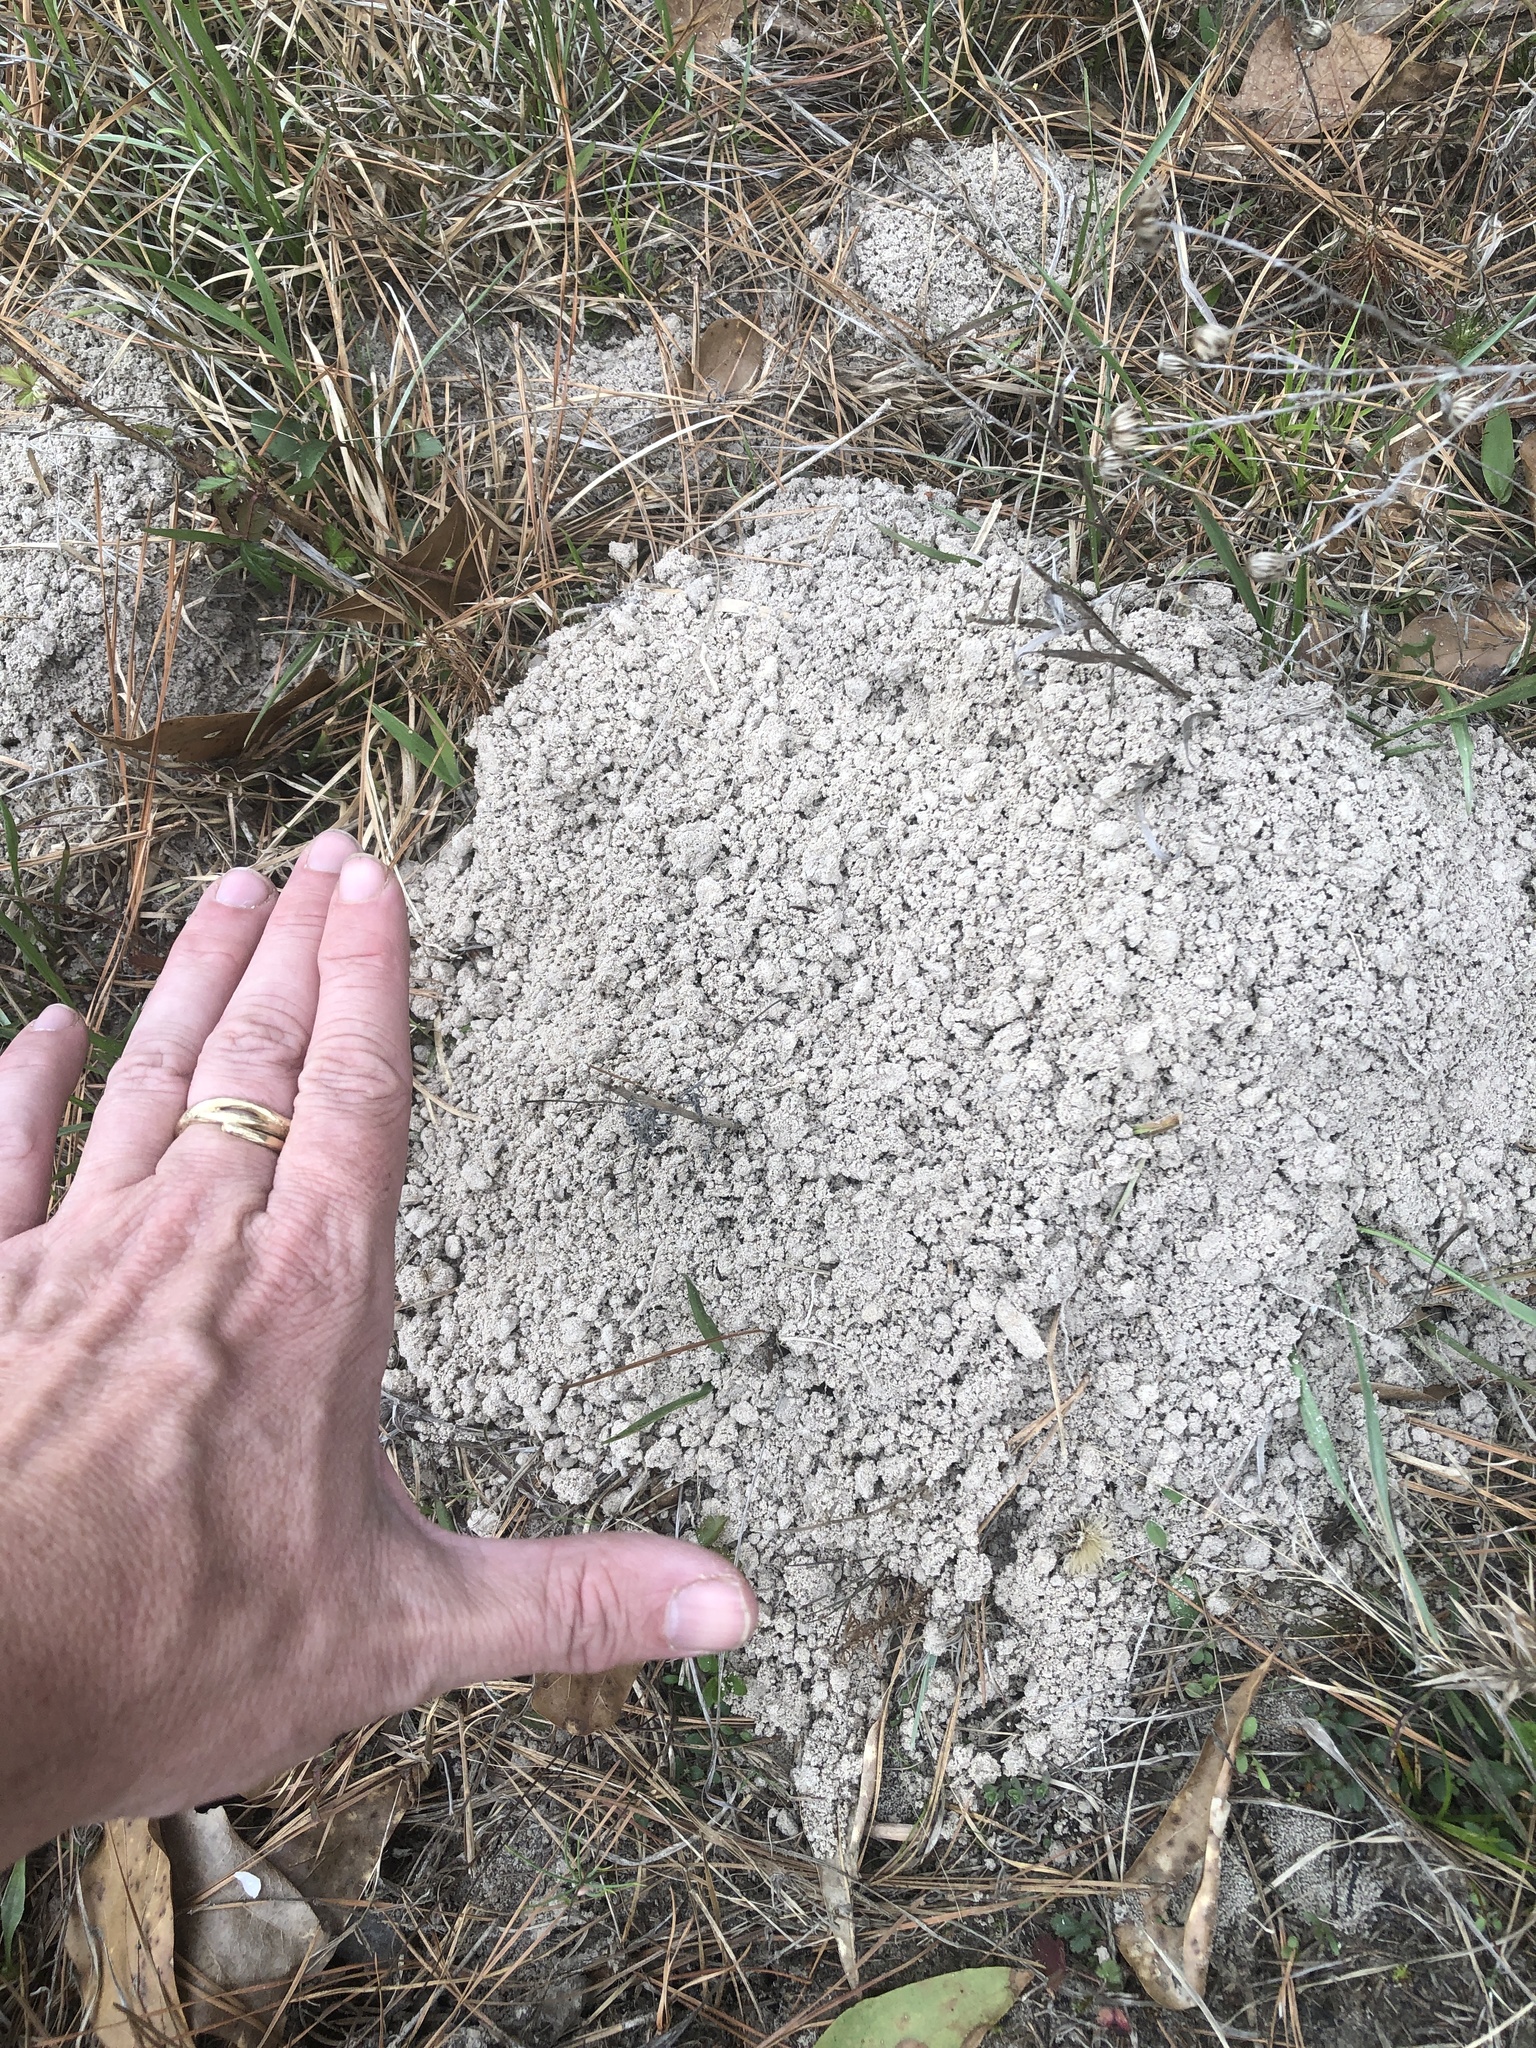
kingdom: Animalia
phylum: Chordata
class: Mammalia
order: Rodentia
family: Geomyidae
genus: Geomys
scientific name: Geomys breviceps
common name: Baird's pocket gopher
